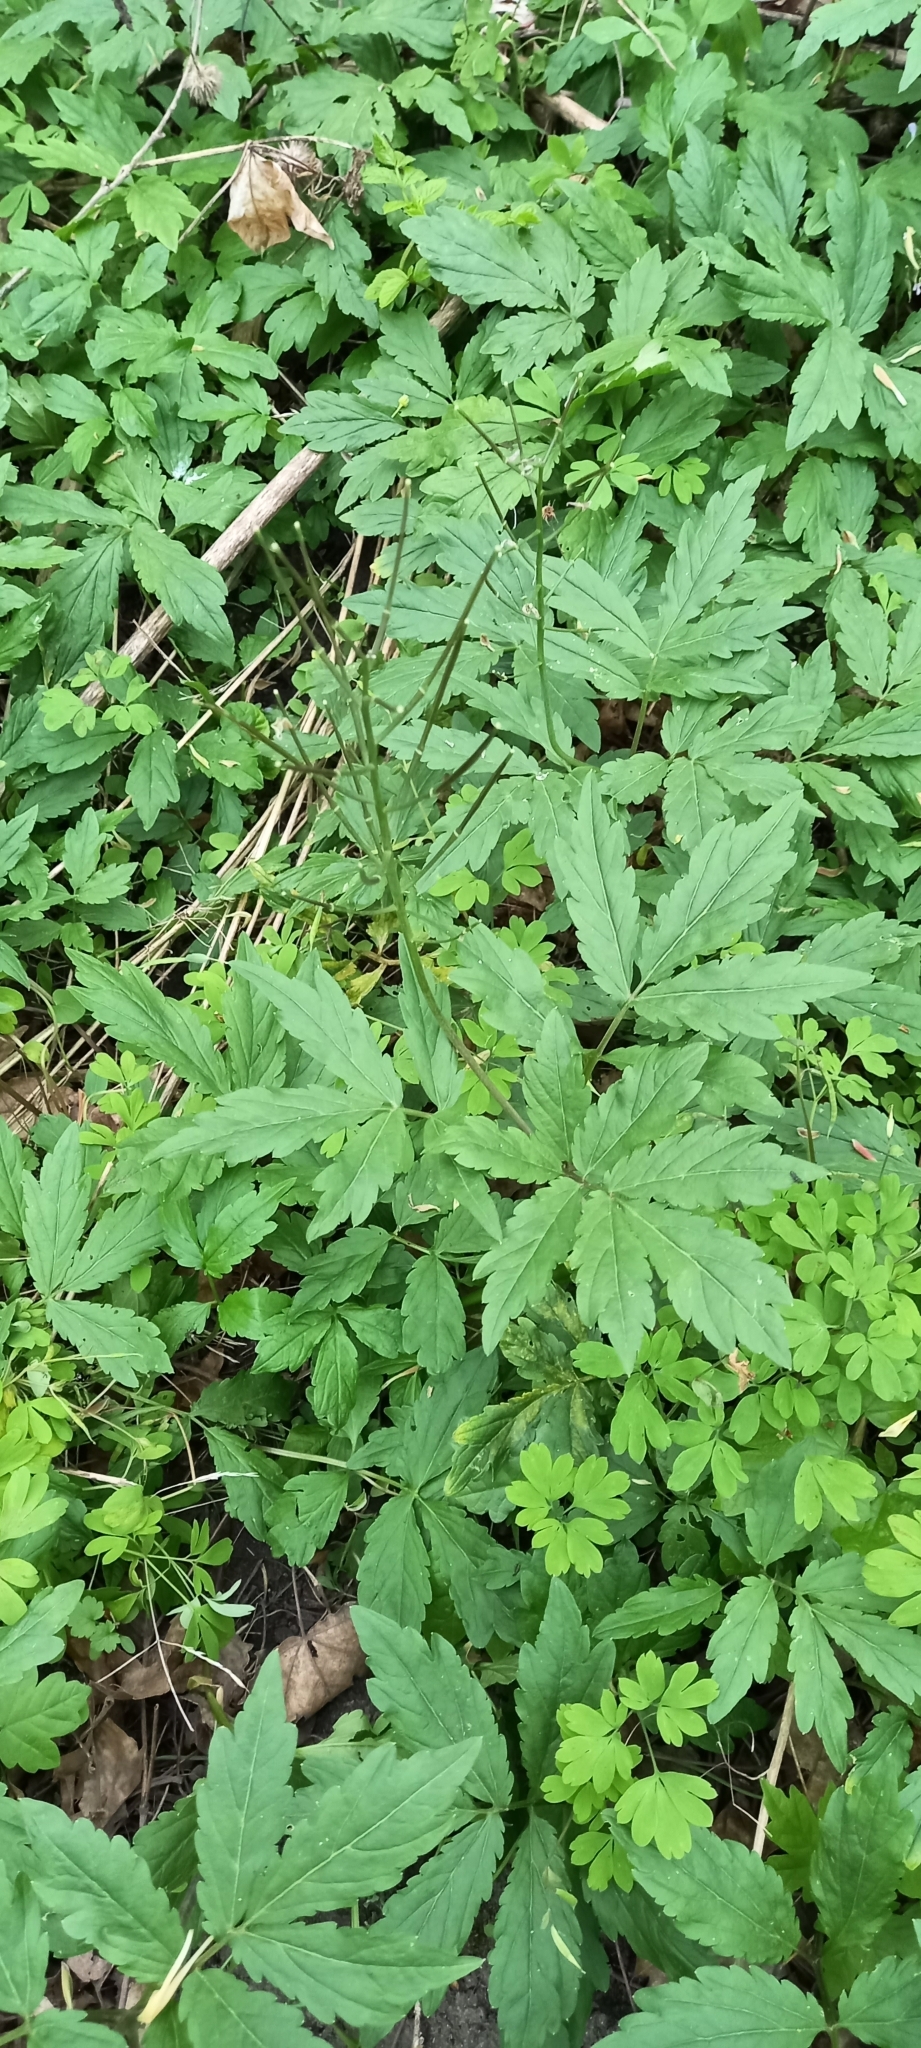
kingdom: Plantae
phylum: Tracheophyta
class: Magnoliopsida
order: Brassicales
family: Brassicaceae
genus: Cardamine
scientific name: Cardamine quinquefolia
